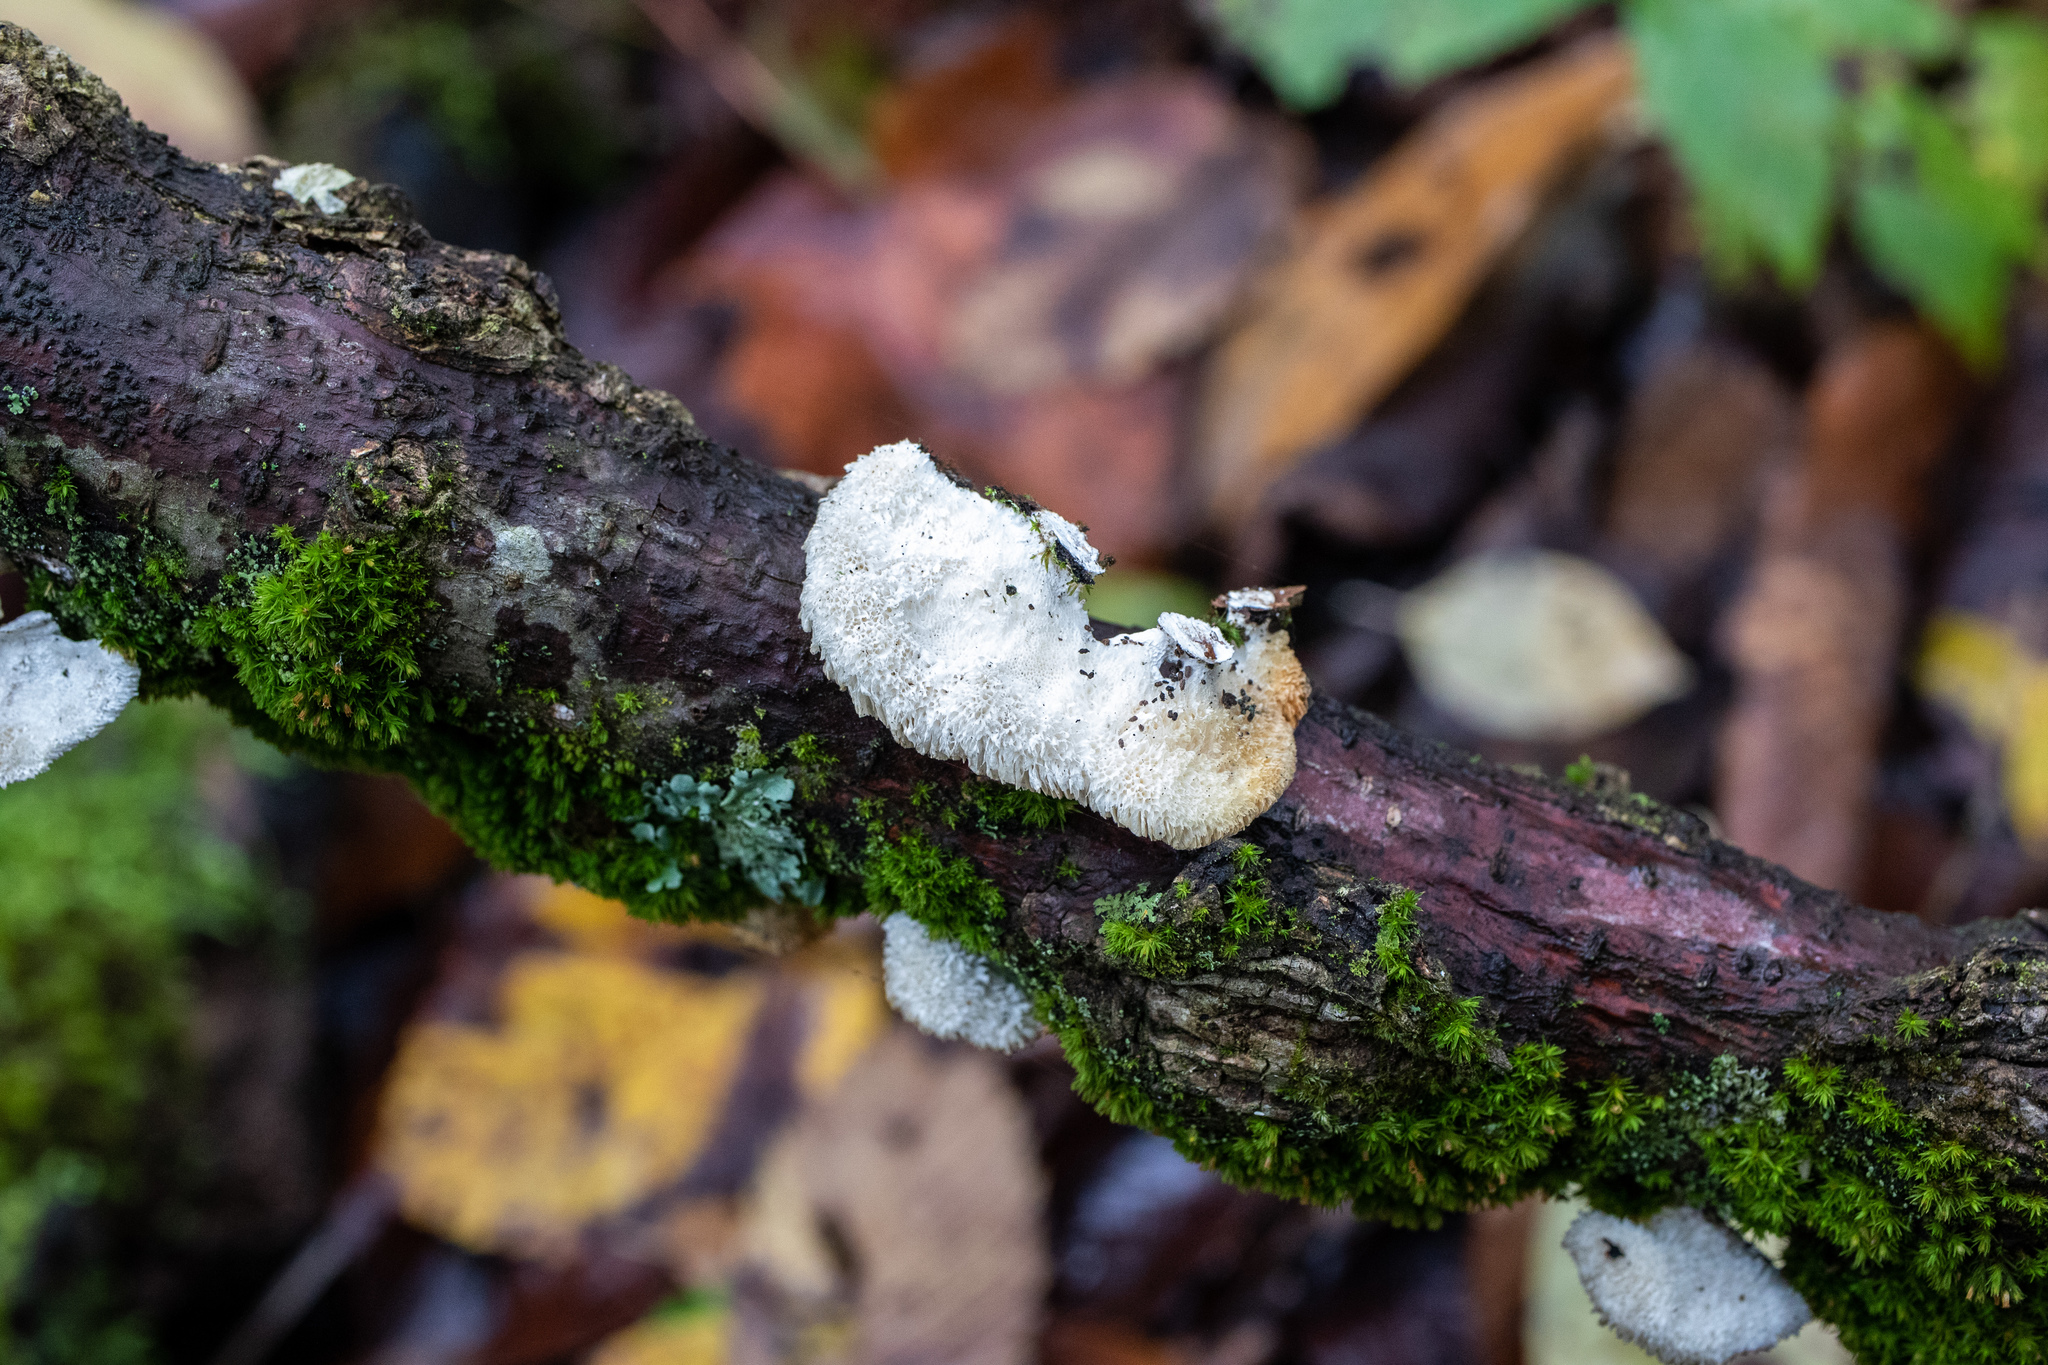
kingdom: Fungi
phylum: Basidiomycota
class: Agaricomycetes
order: Agaricales
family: Schizophyllaceae
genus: Schizophyllum
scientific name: Schizophyllum commune
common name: Common porecrust
